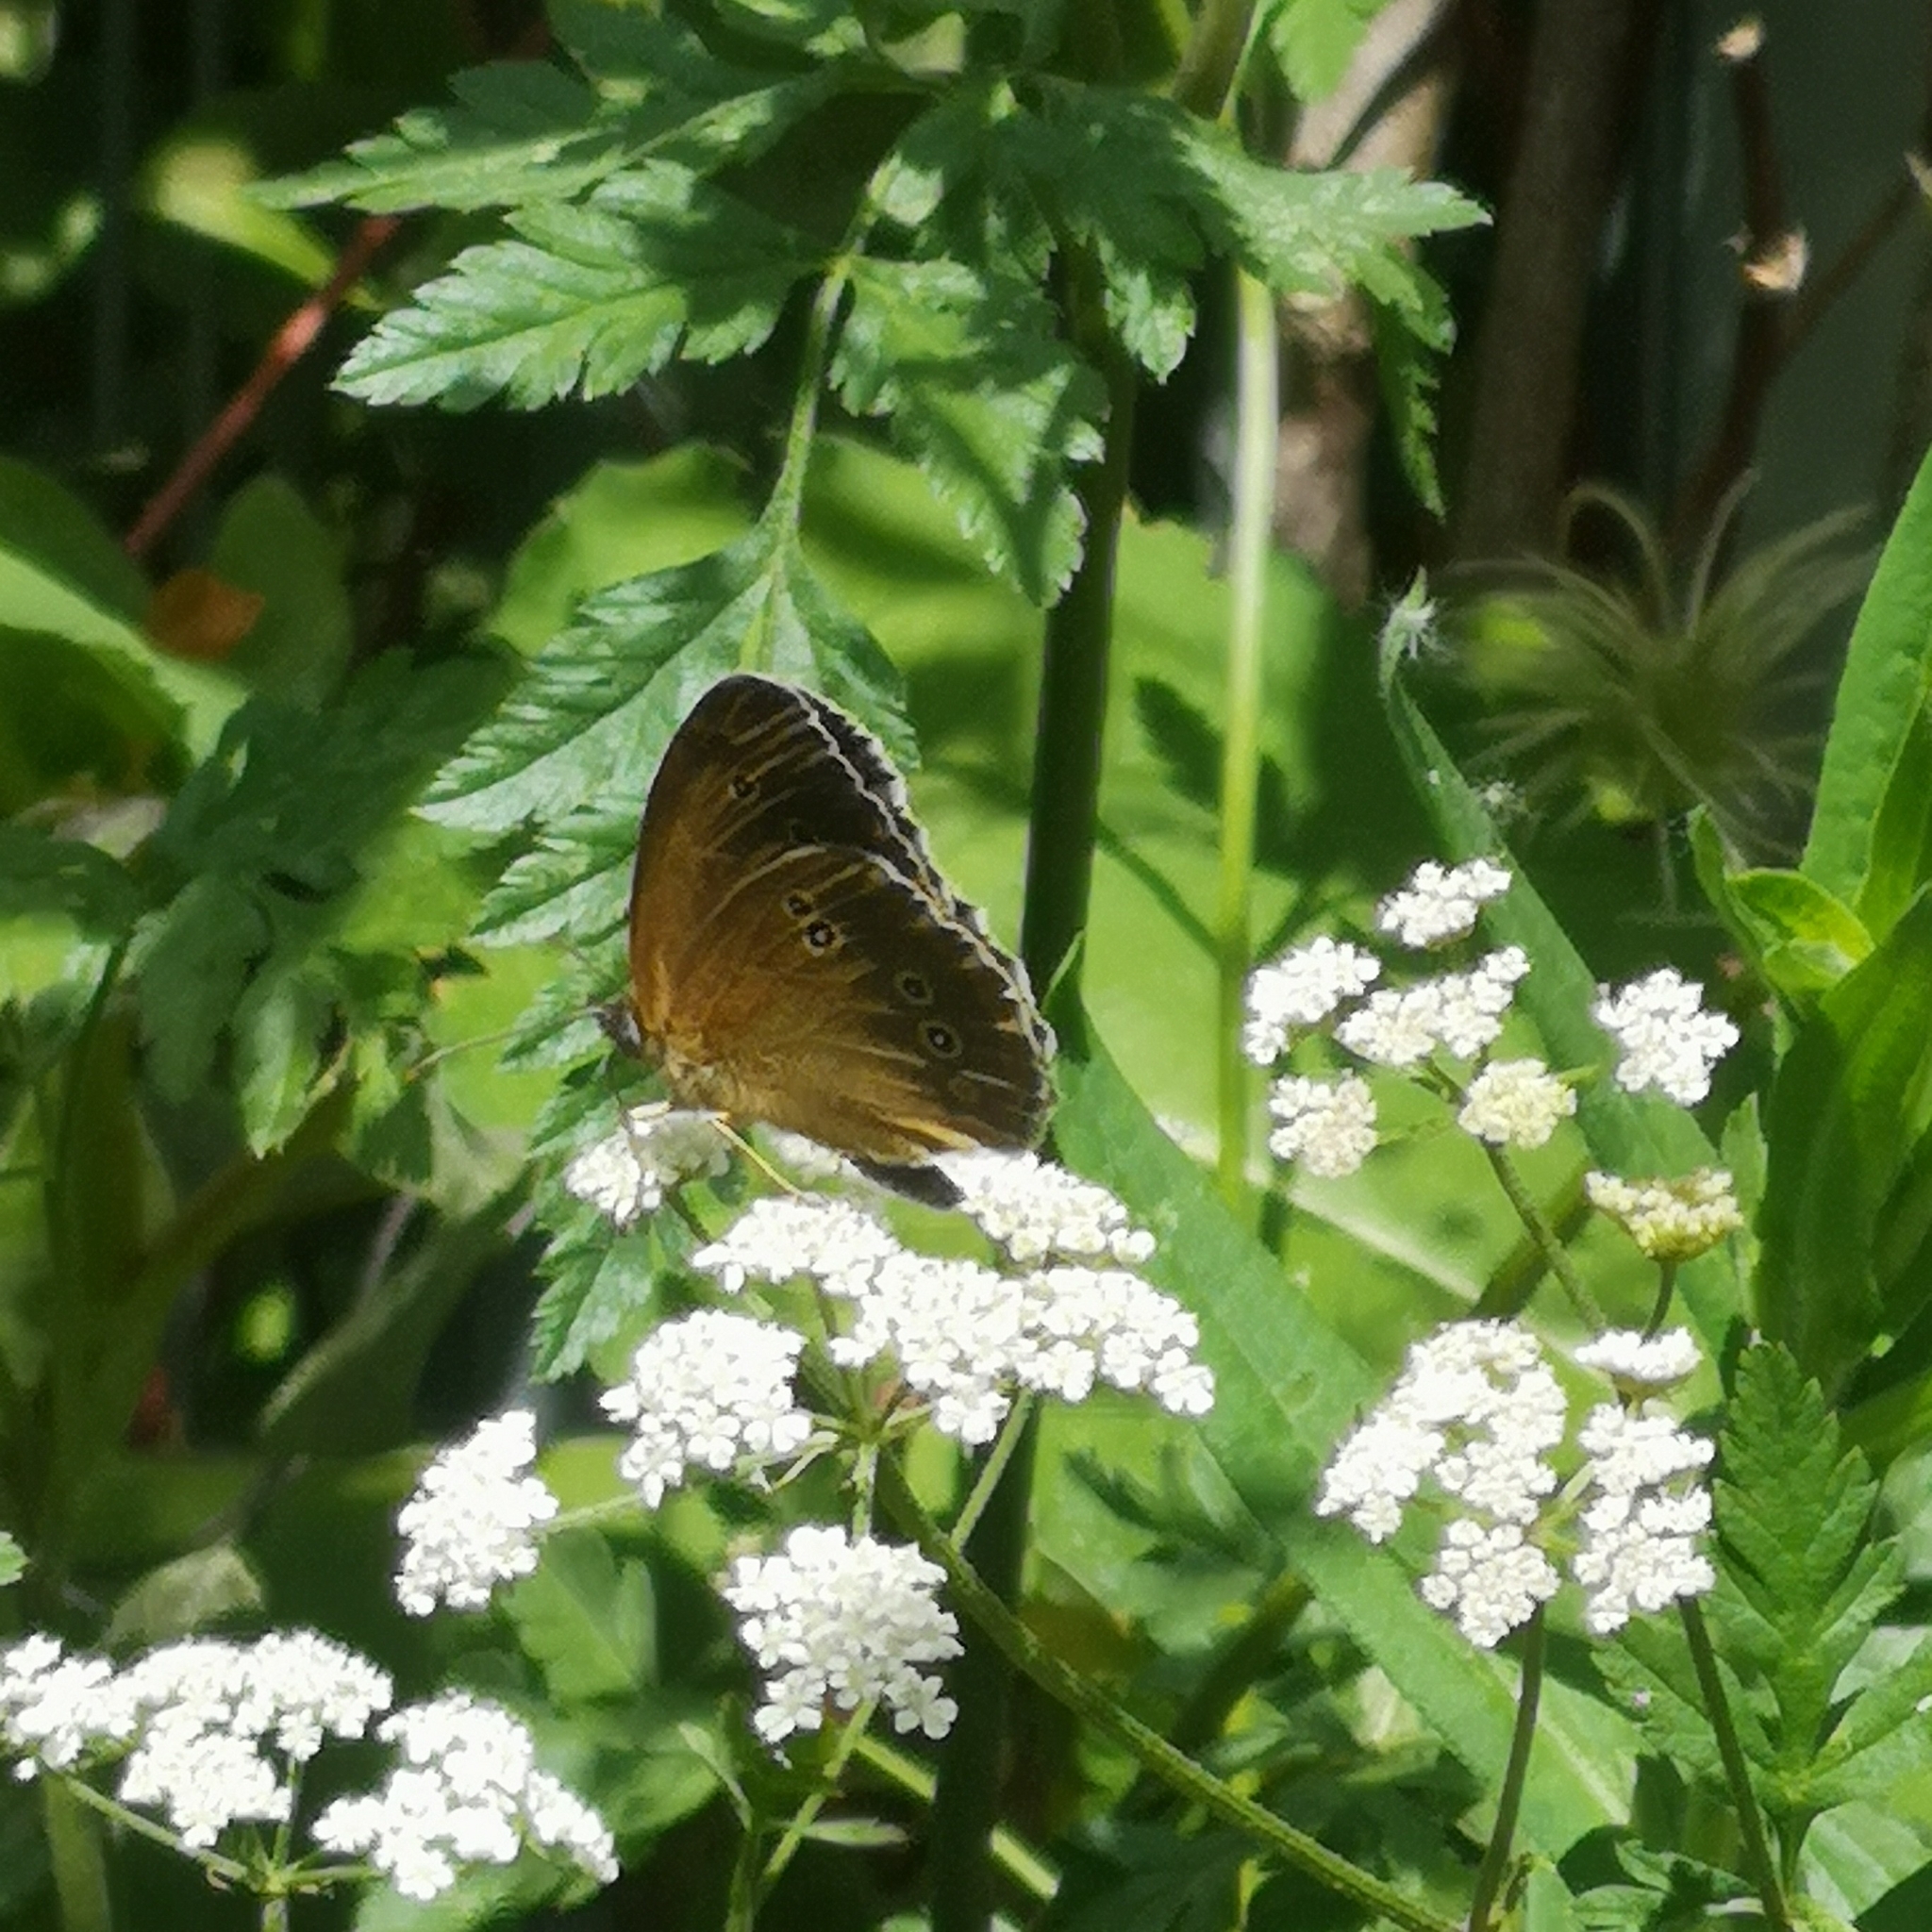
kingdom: Animalia
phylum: Arthropoda
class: Insecta
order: Lepidoptera
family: Nymphalidae
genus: Aphantopus
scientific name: Aphantopus hyperantus
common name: Ringlet
